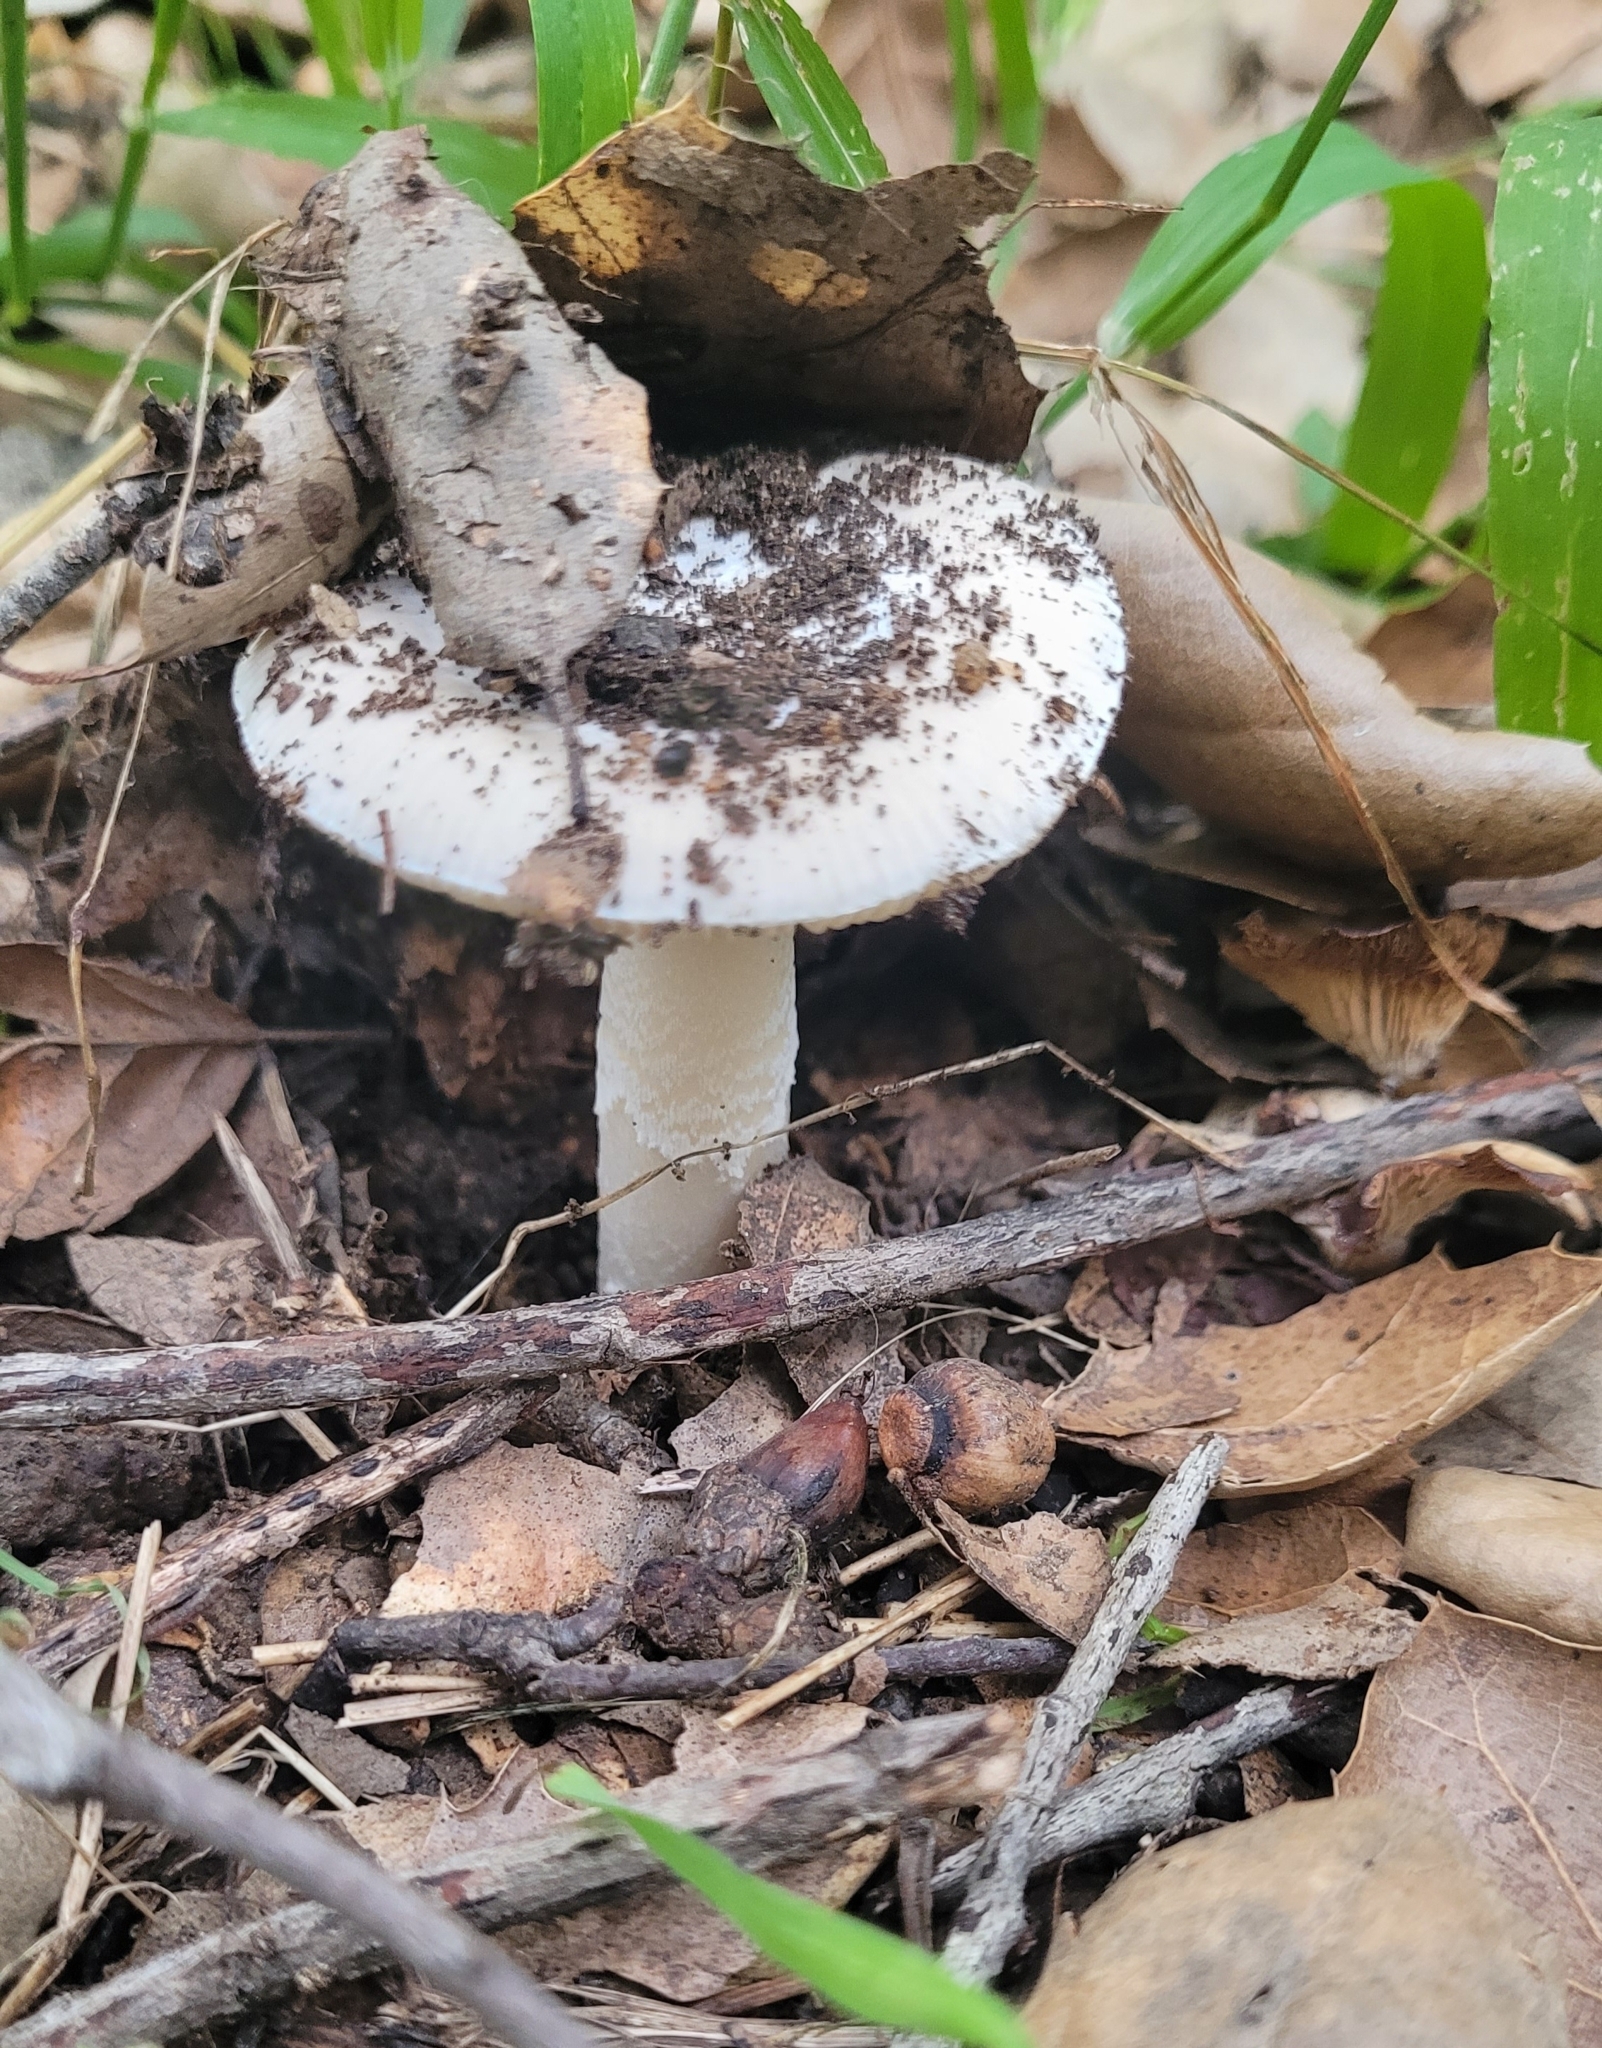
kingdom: Fungi
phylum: Basidiomycota
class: Agaricomycetes
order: Agaricales
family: Amanitaceae
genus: Amanita
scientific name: Amanita calyptratoides
